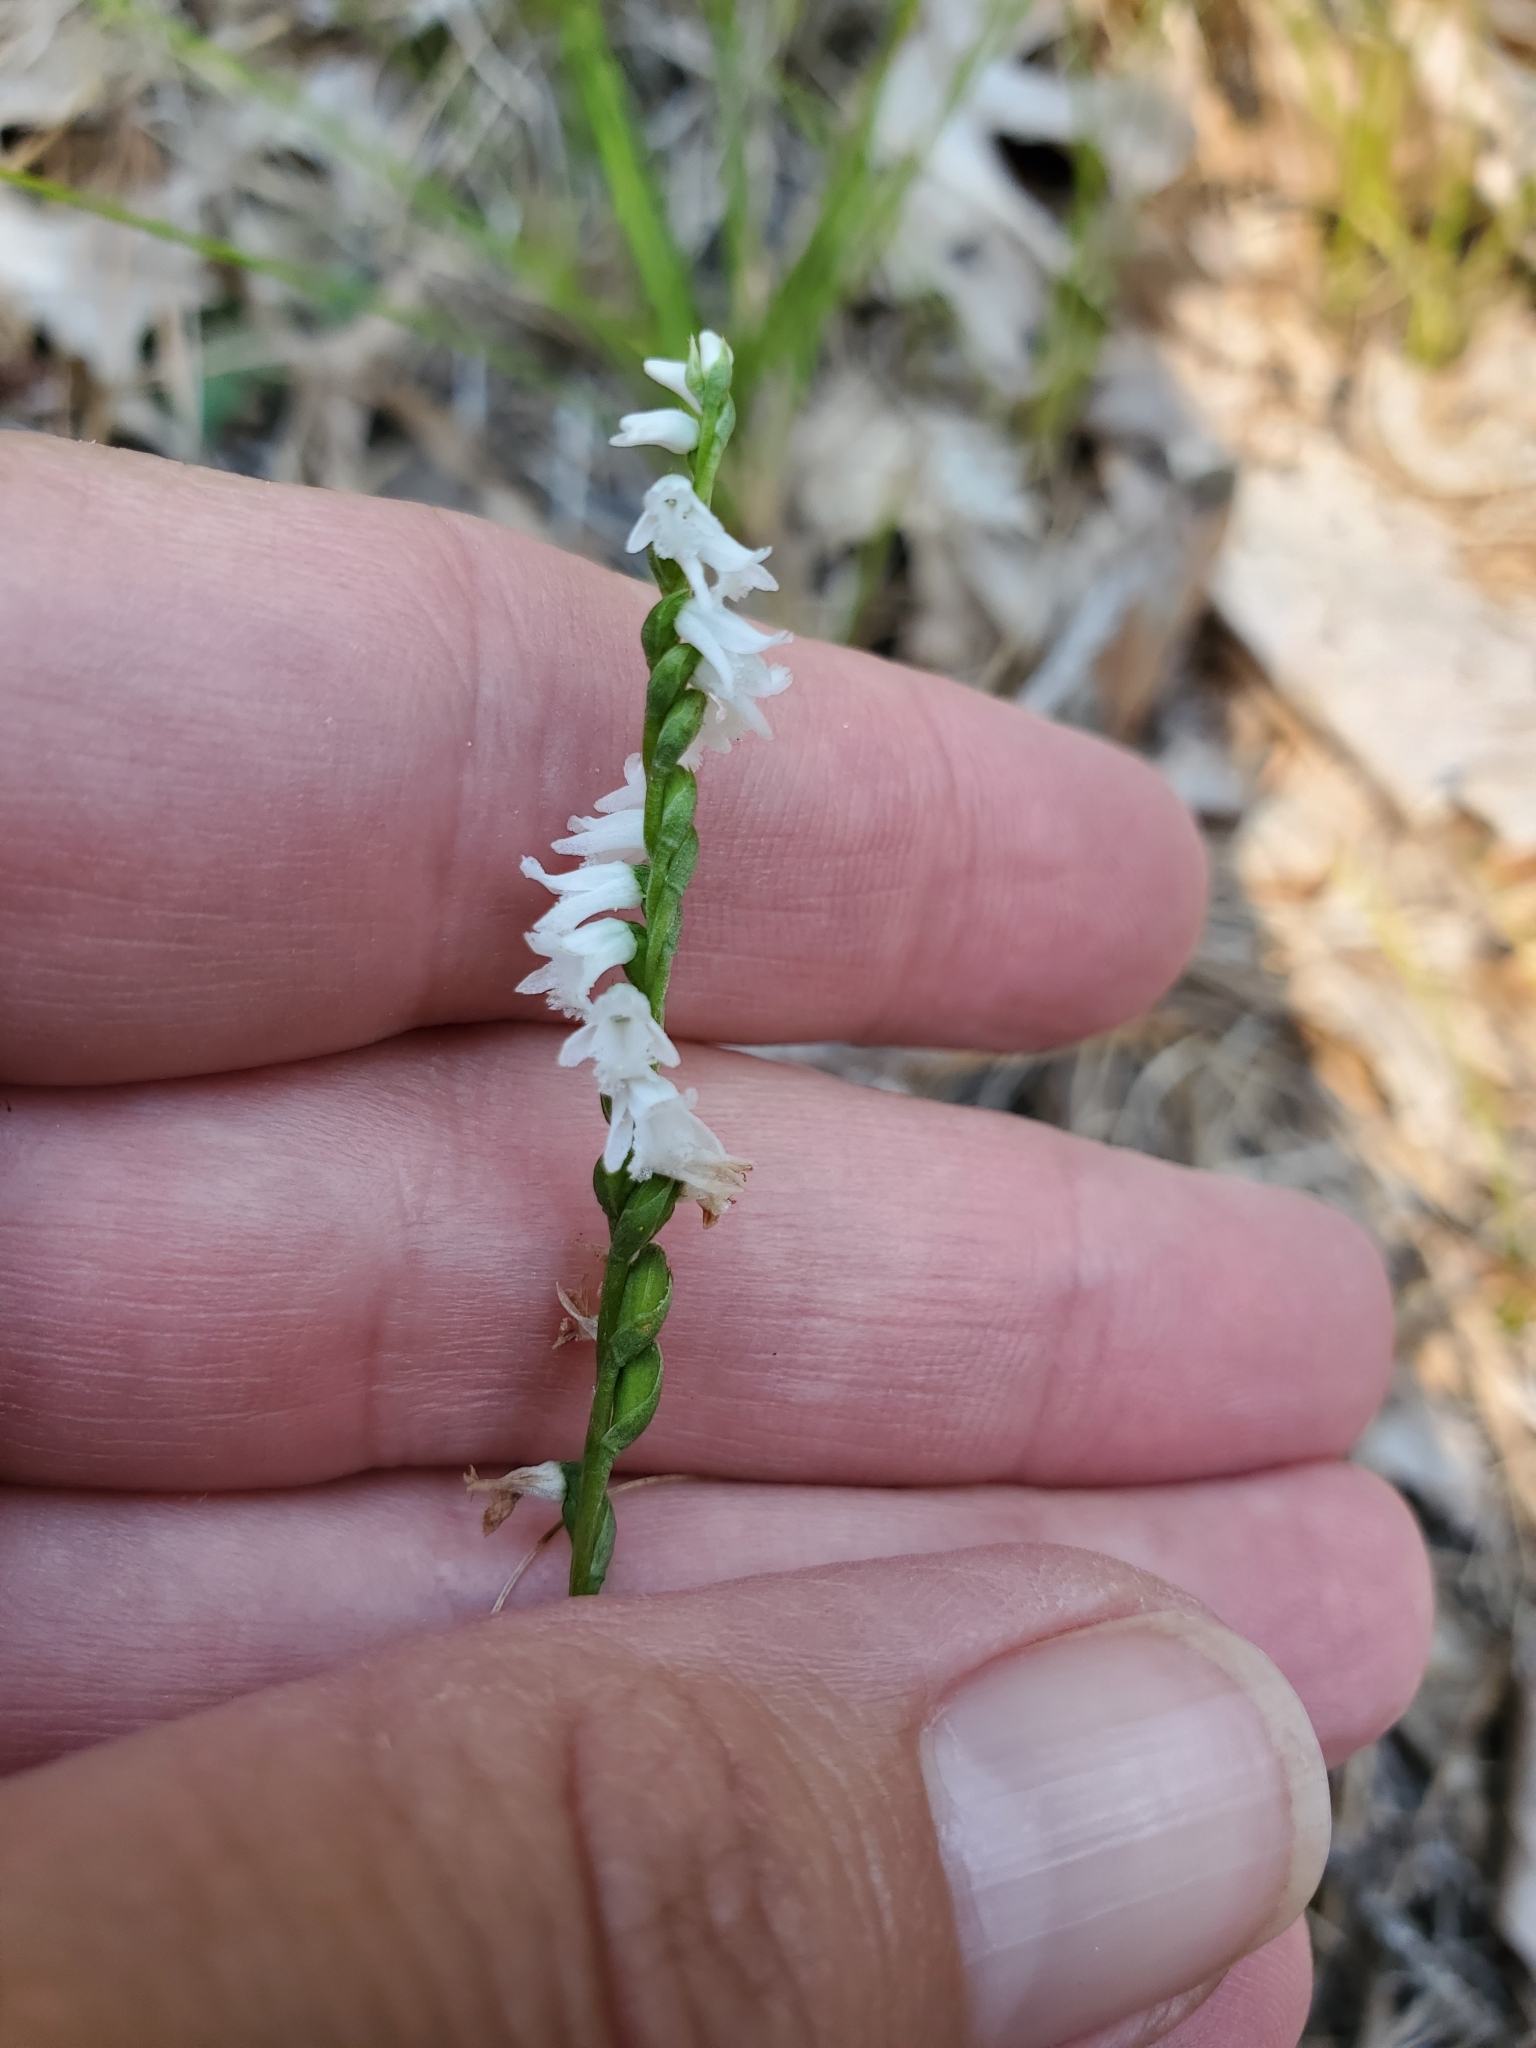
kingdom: Plantae
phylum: Tracheophyta
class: Liliopsida
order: Asparagales
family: Orchidaceae
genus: Spiranthes
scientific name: Spiranthes tuberosa
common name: Little ladies'-tresses
